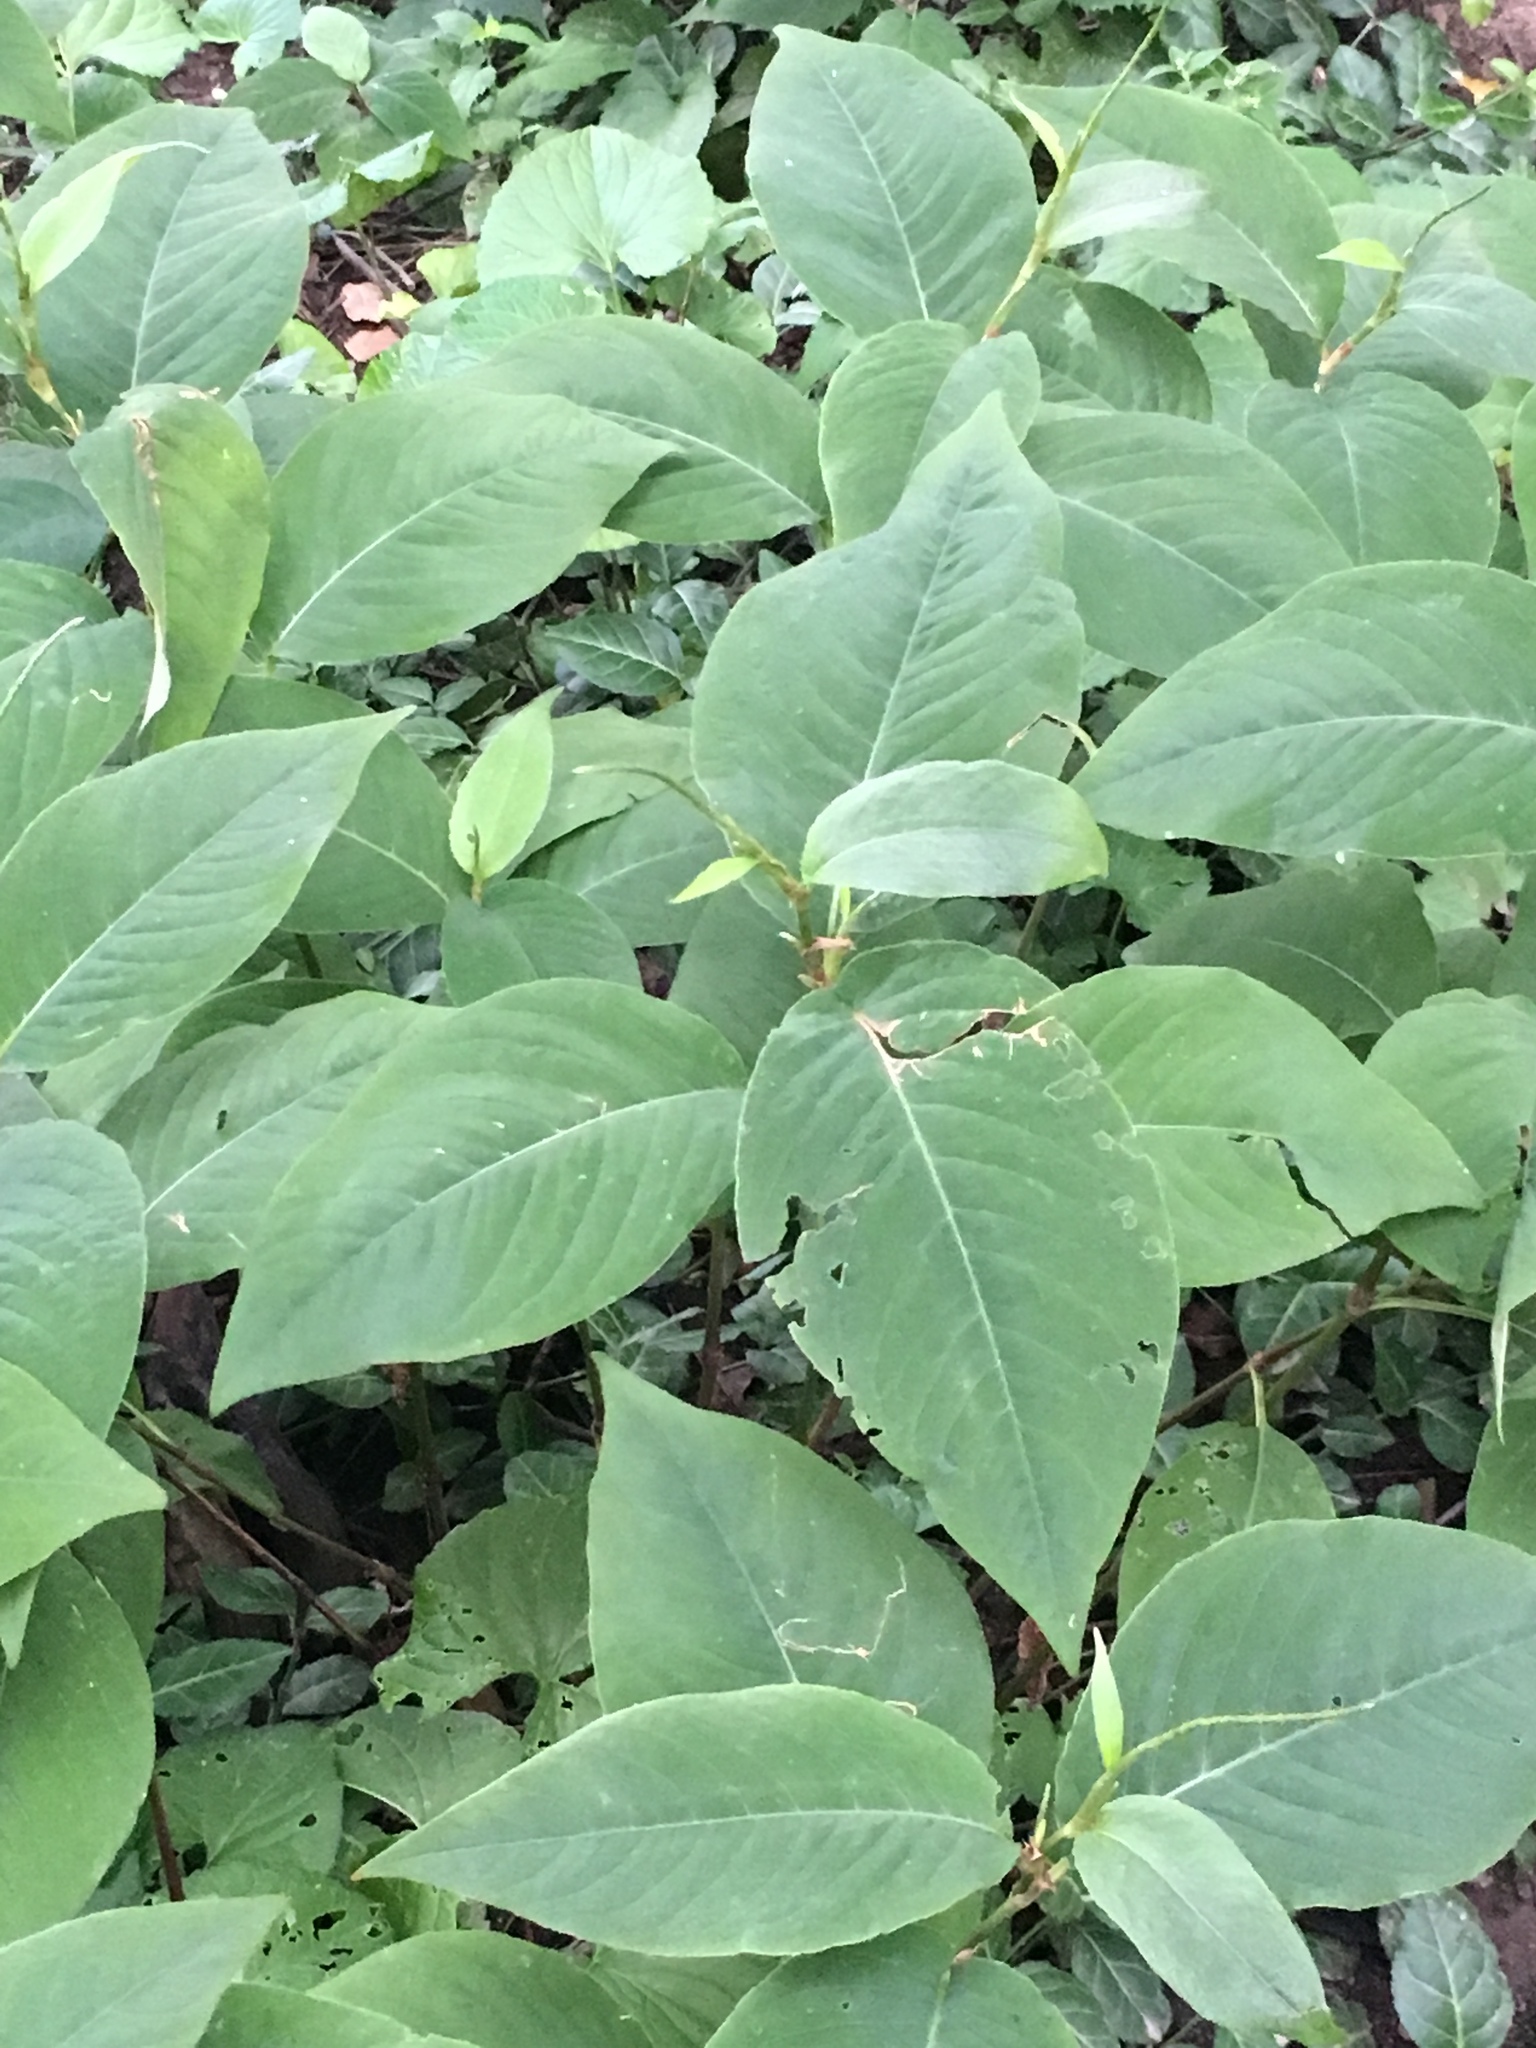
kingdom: Plantae
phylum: Tracheophyta
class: Magnoliopsida
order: Caryophyllales
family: Polygonaceae
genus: Persicaria
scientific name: Persicaria virginiana
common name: Jumpseed
